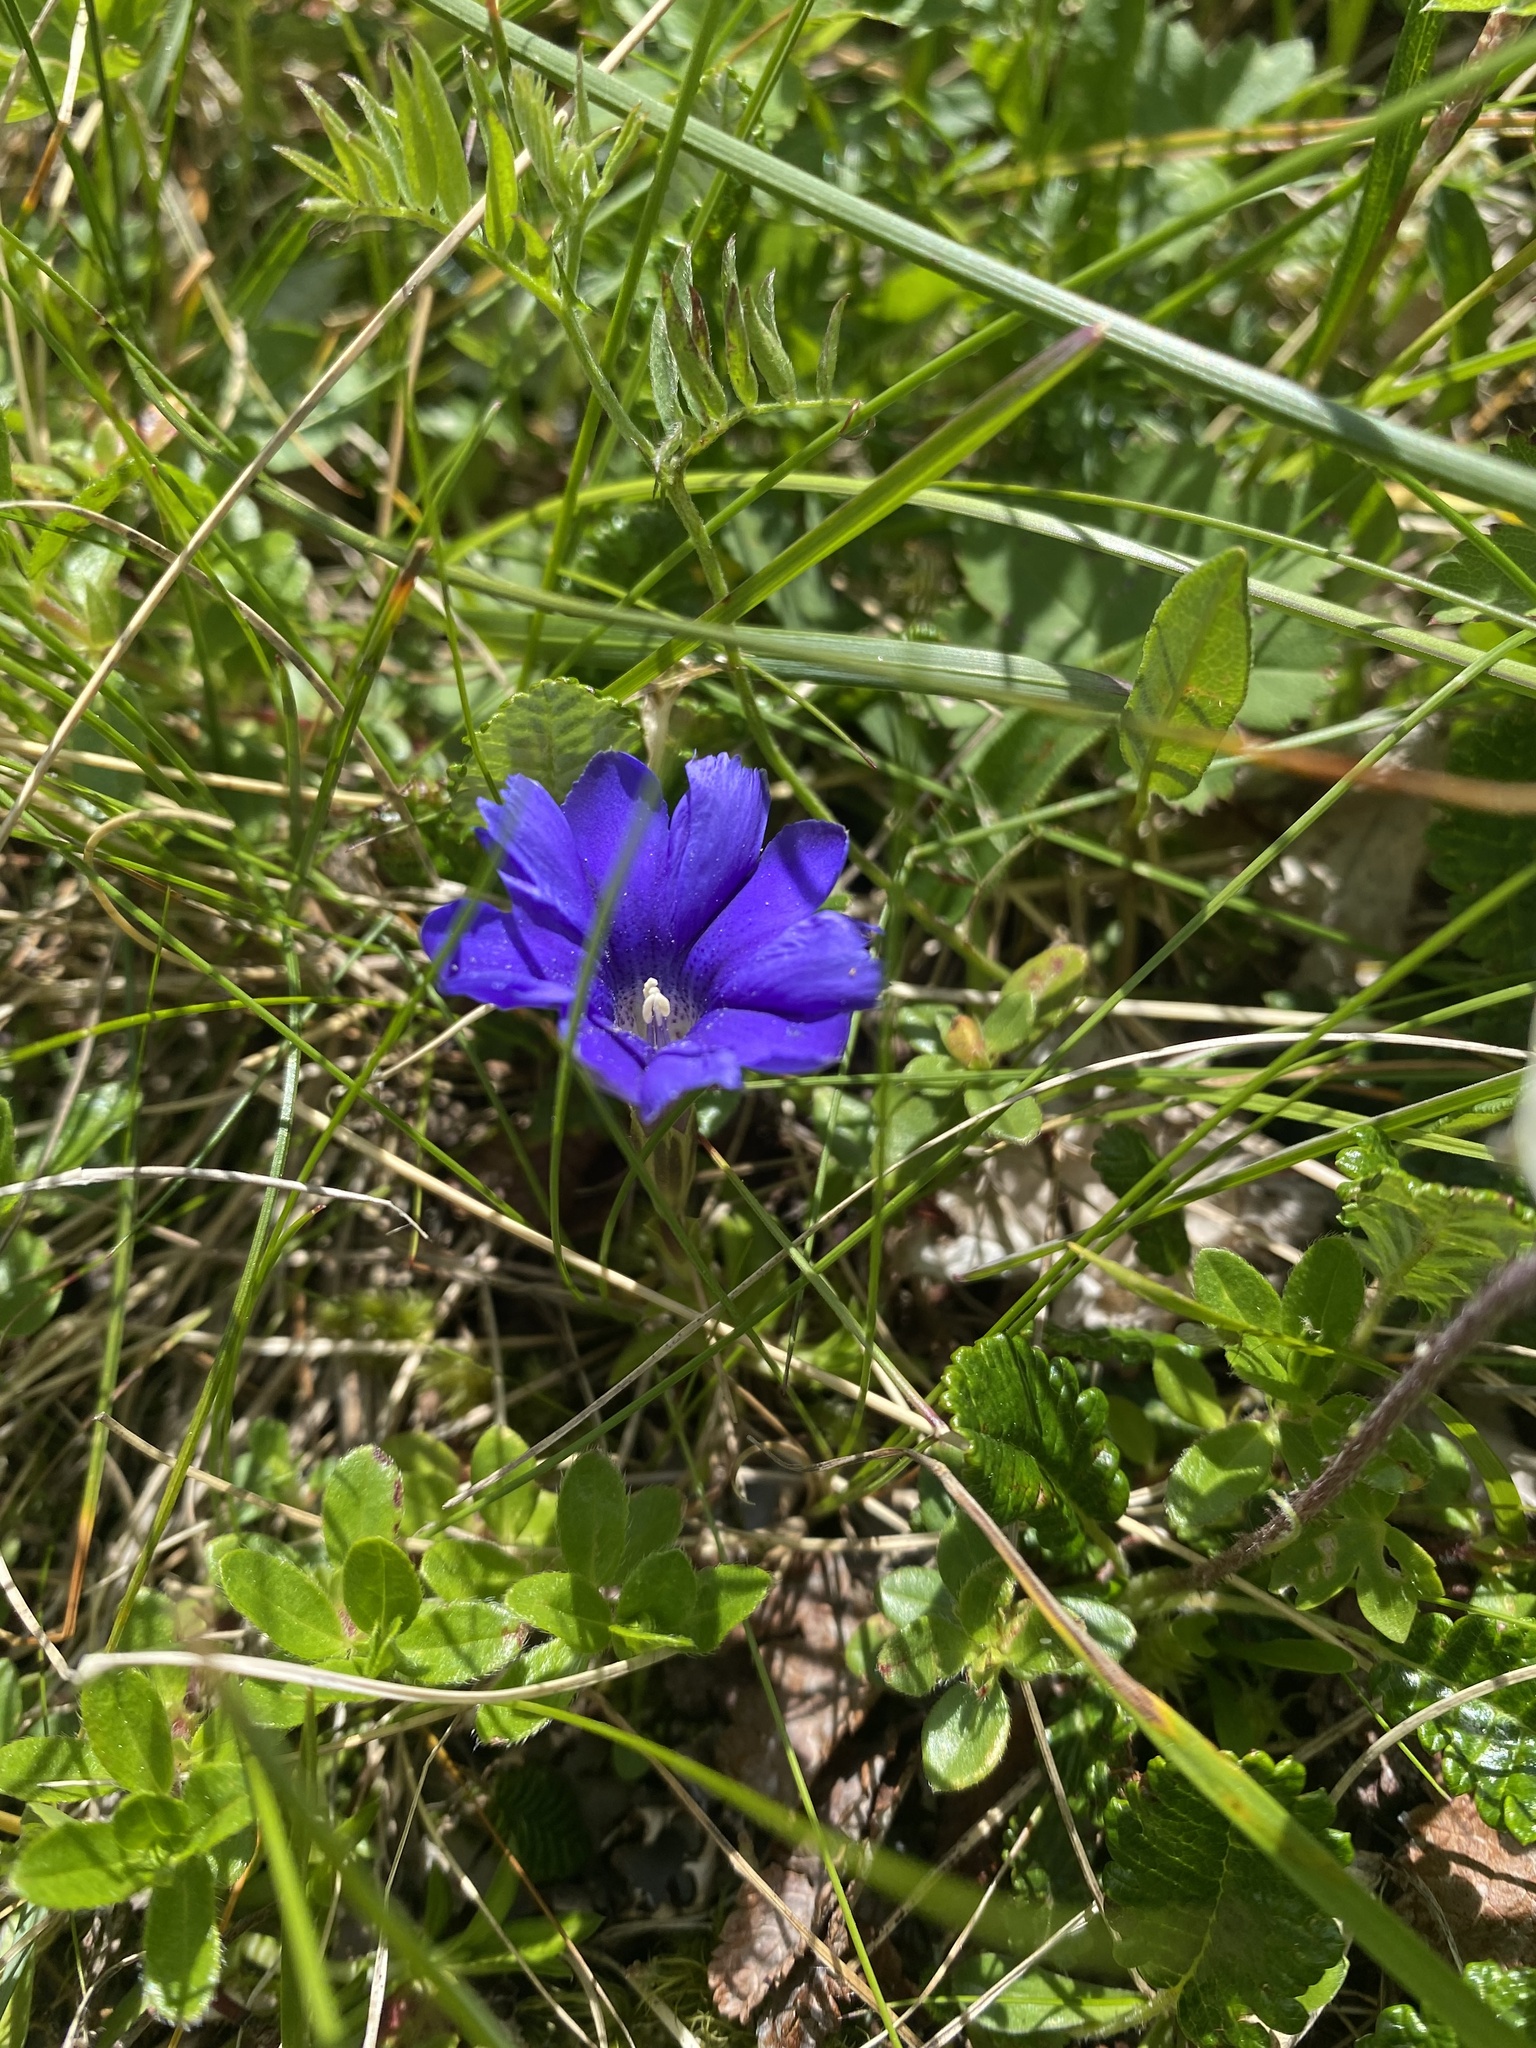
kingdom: Plantae
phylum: Tracheophyta
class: Magnoliopsida
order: Gentianales
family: Gentianaceae
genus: Gentiana
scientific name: Gentiana dshimilensis
